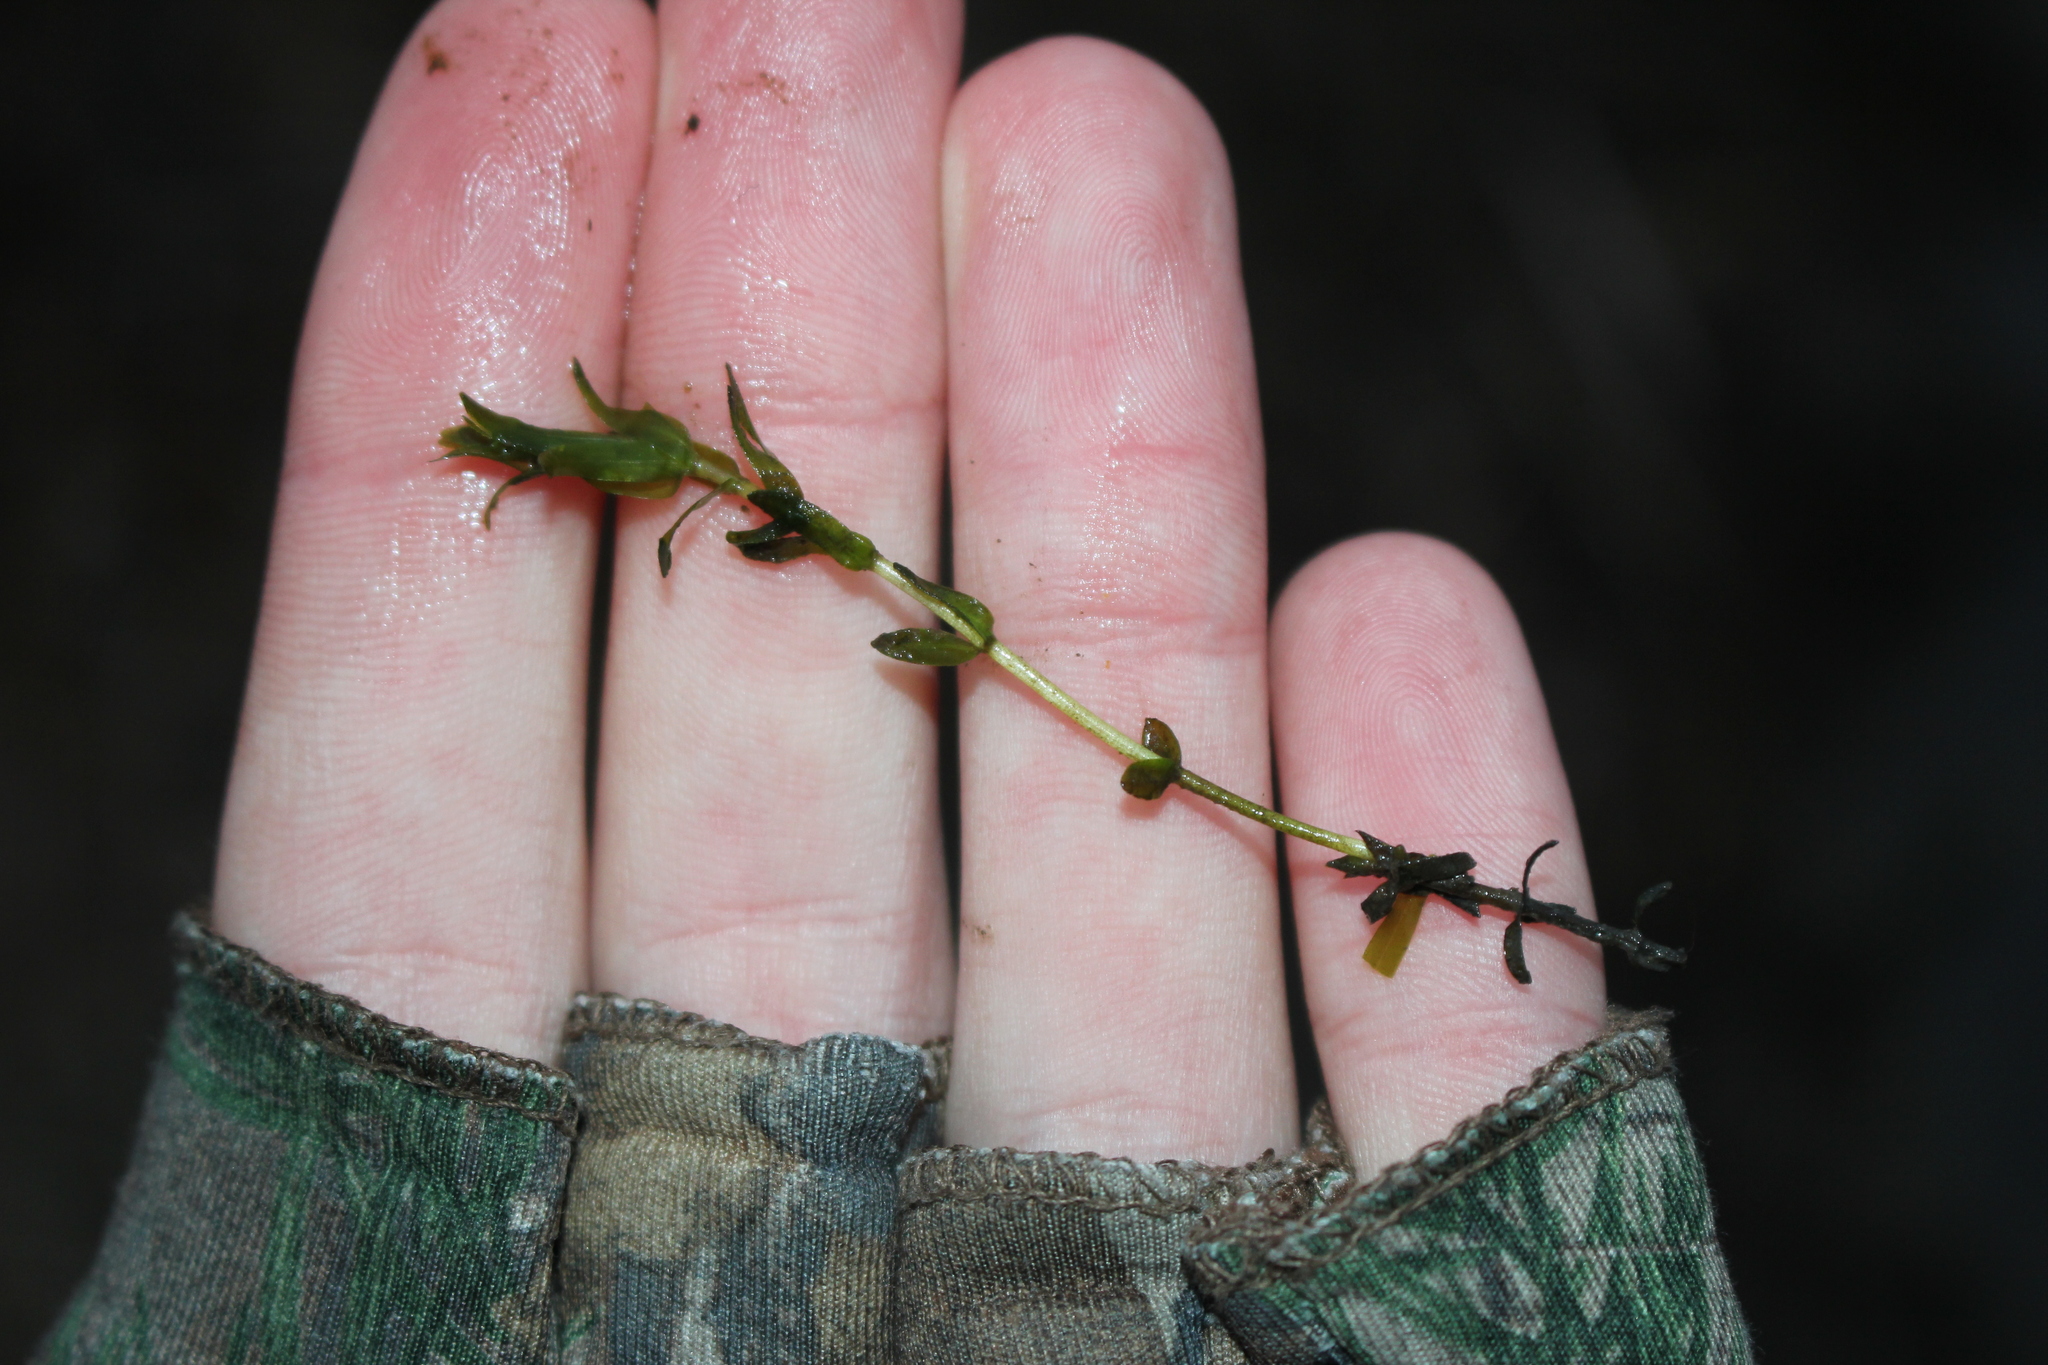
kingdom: Plantae
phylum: Tracheophyta
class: Liliopsida
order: Alismatales
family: Hydrocharitaceae
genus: Elodea
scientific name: Elodea canadensis
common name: Canadian waterweed
